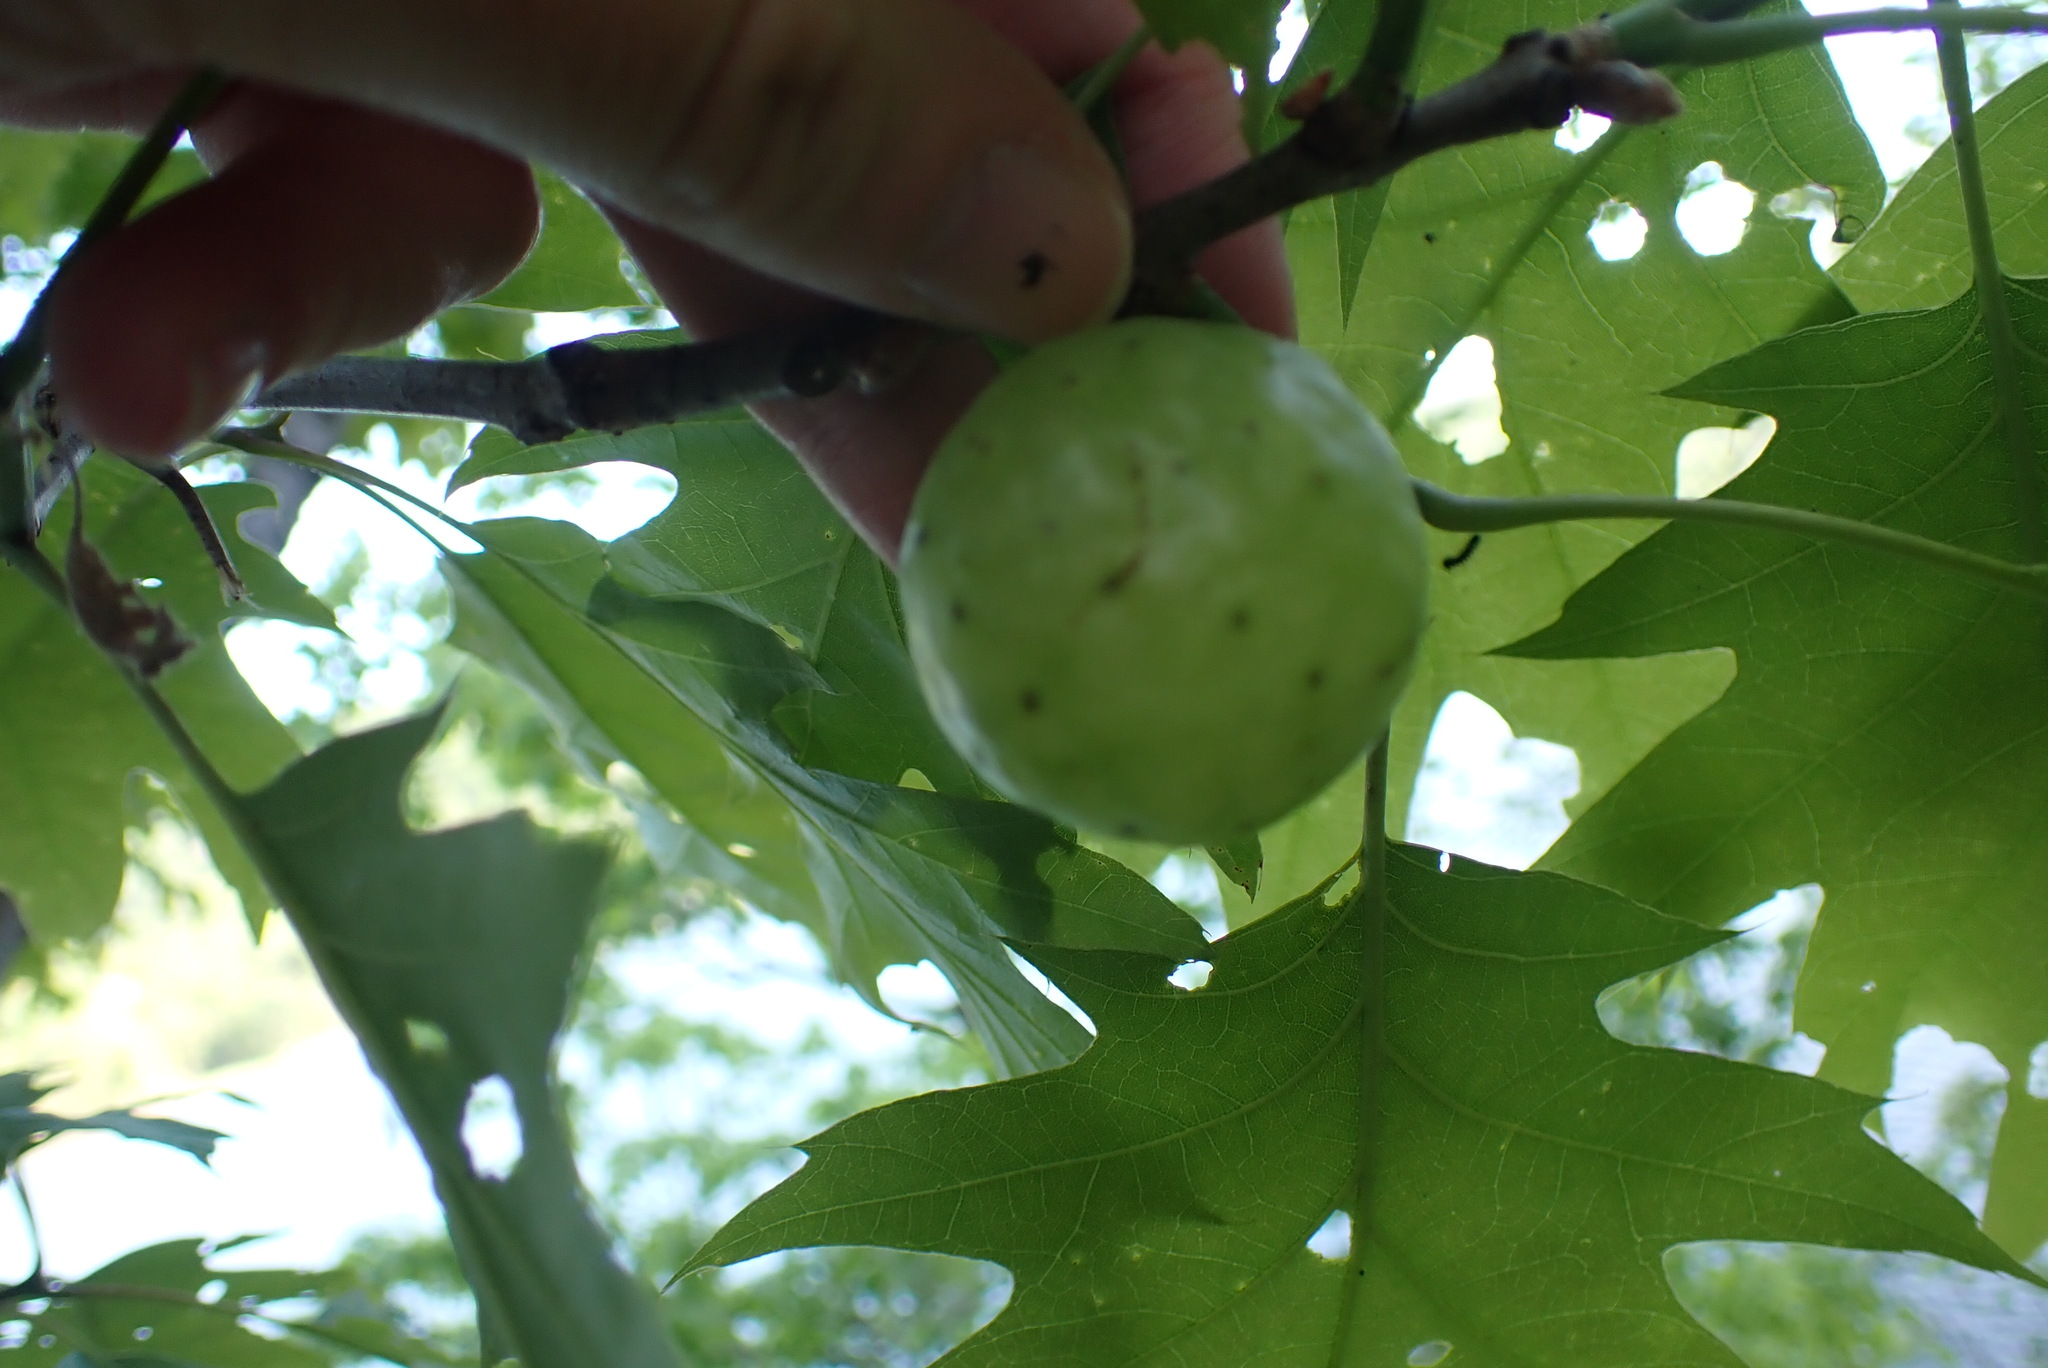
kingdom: Animalia
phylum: Arthropoda
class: Insecta
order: Hymenoptera
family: Cynipidae
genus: Amphibolips
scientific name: Amphibolips
